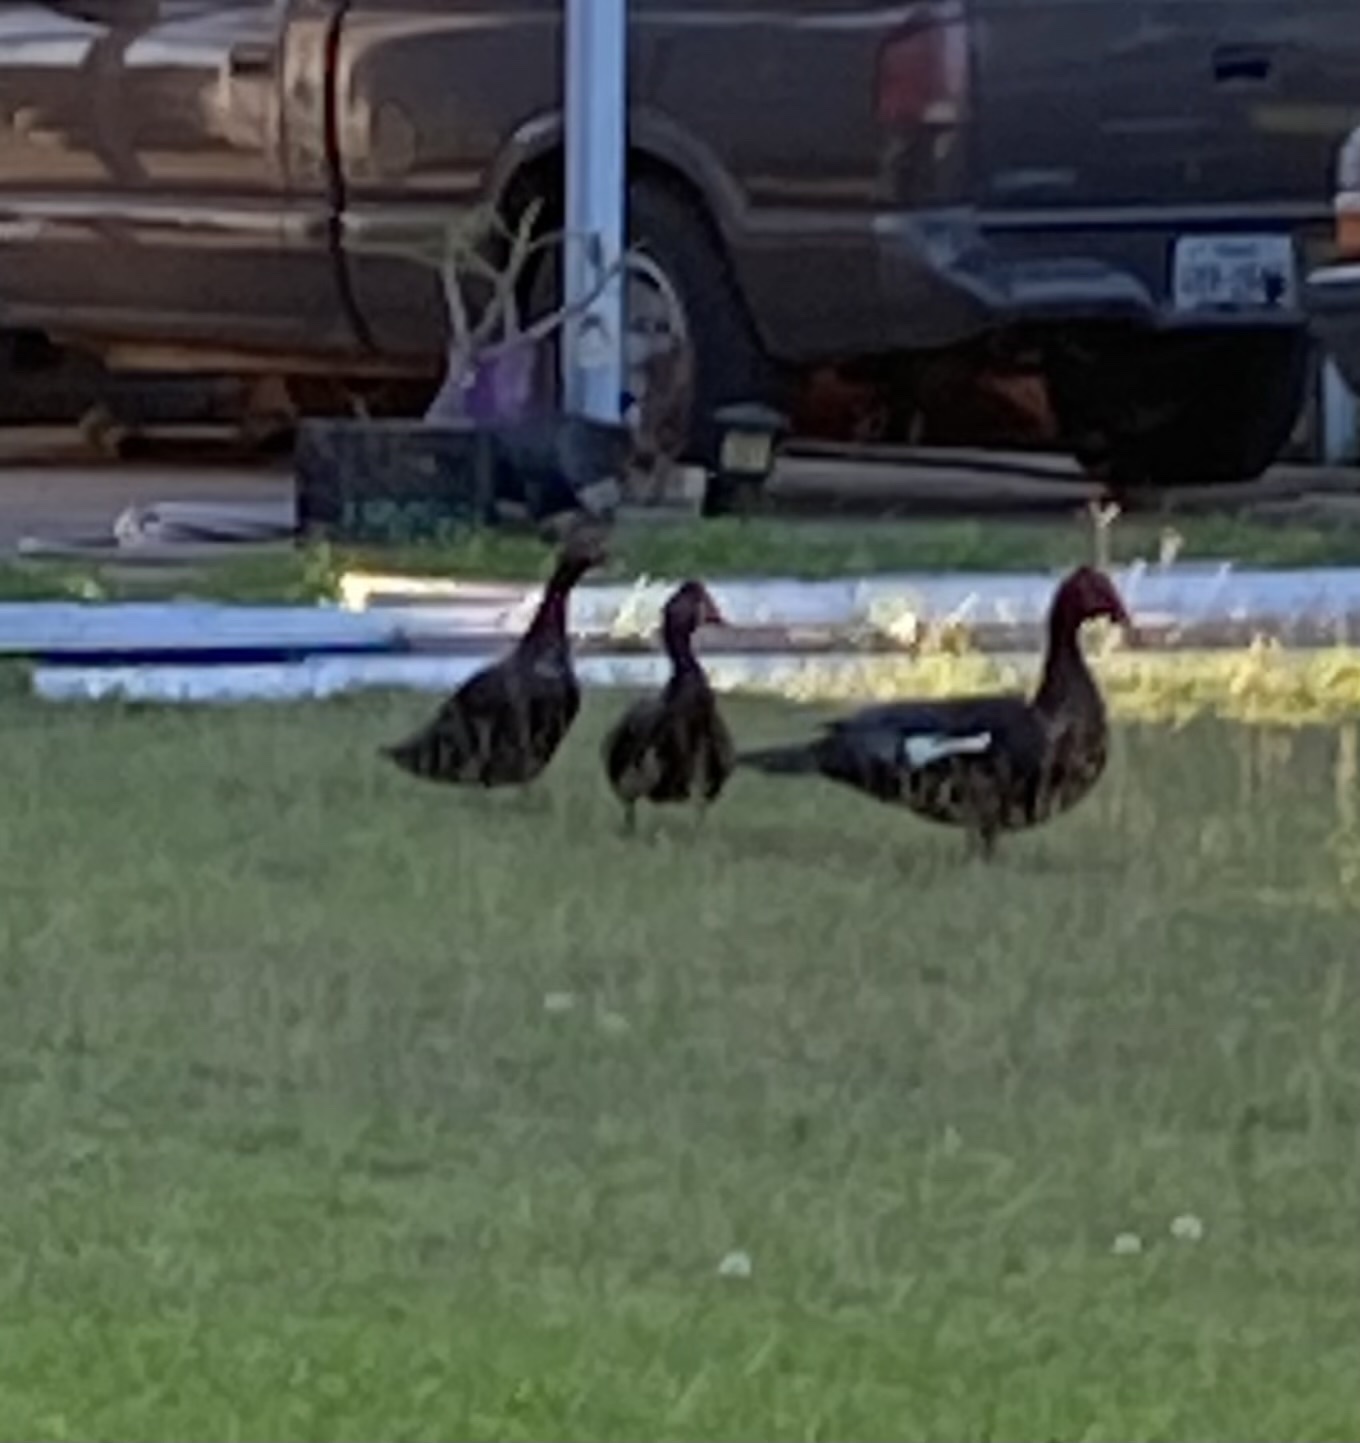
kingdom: Animalia
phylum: Chordata
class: Aves
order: Anseriformes
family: Anatidae
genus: Cairina
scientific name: Cairina moschata
